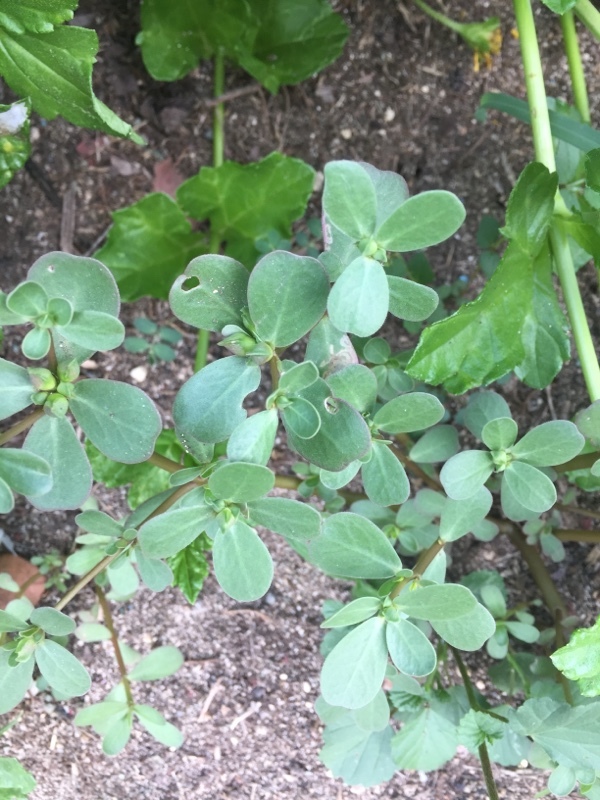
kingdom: Plantae
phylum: Tracheophyta
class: Magnoliopsida
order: Caryophyllales
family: Portulacaceae
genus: Portulaca
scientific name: Portulaca oleracea
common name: Common purslane
